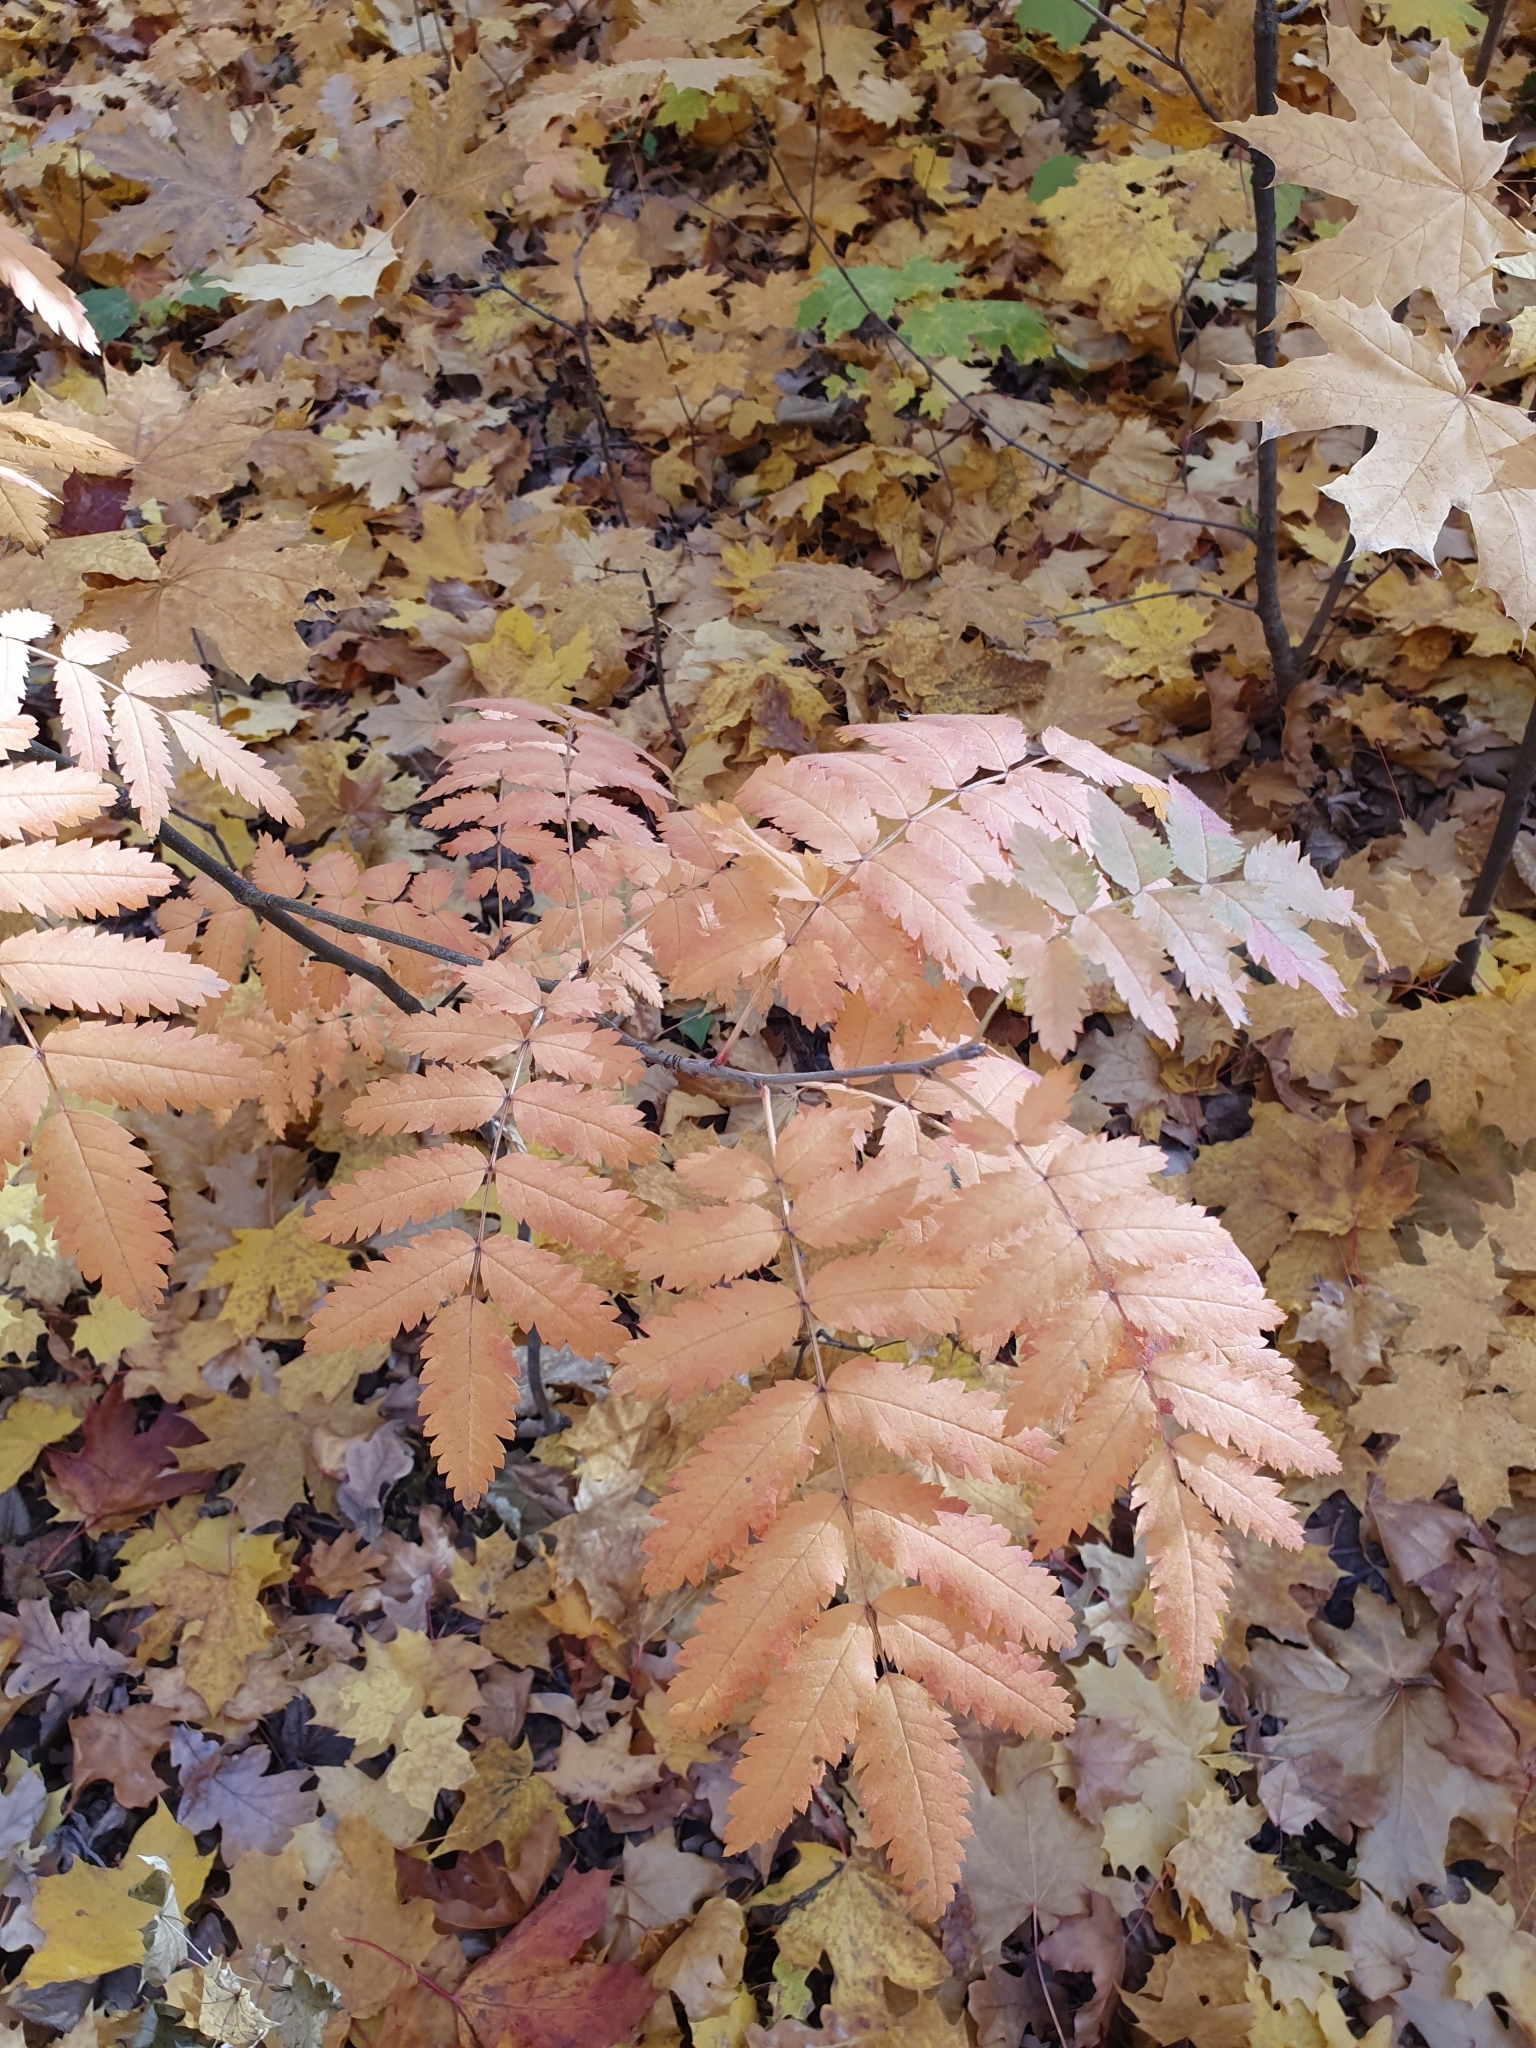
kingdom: Plantae
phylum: Tracheophyta
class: Magnoliopsida
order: Rosales
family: Rosaceae
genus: Sorbus
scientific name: Sorbus aucuparia
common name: Rowan
